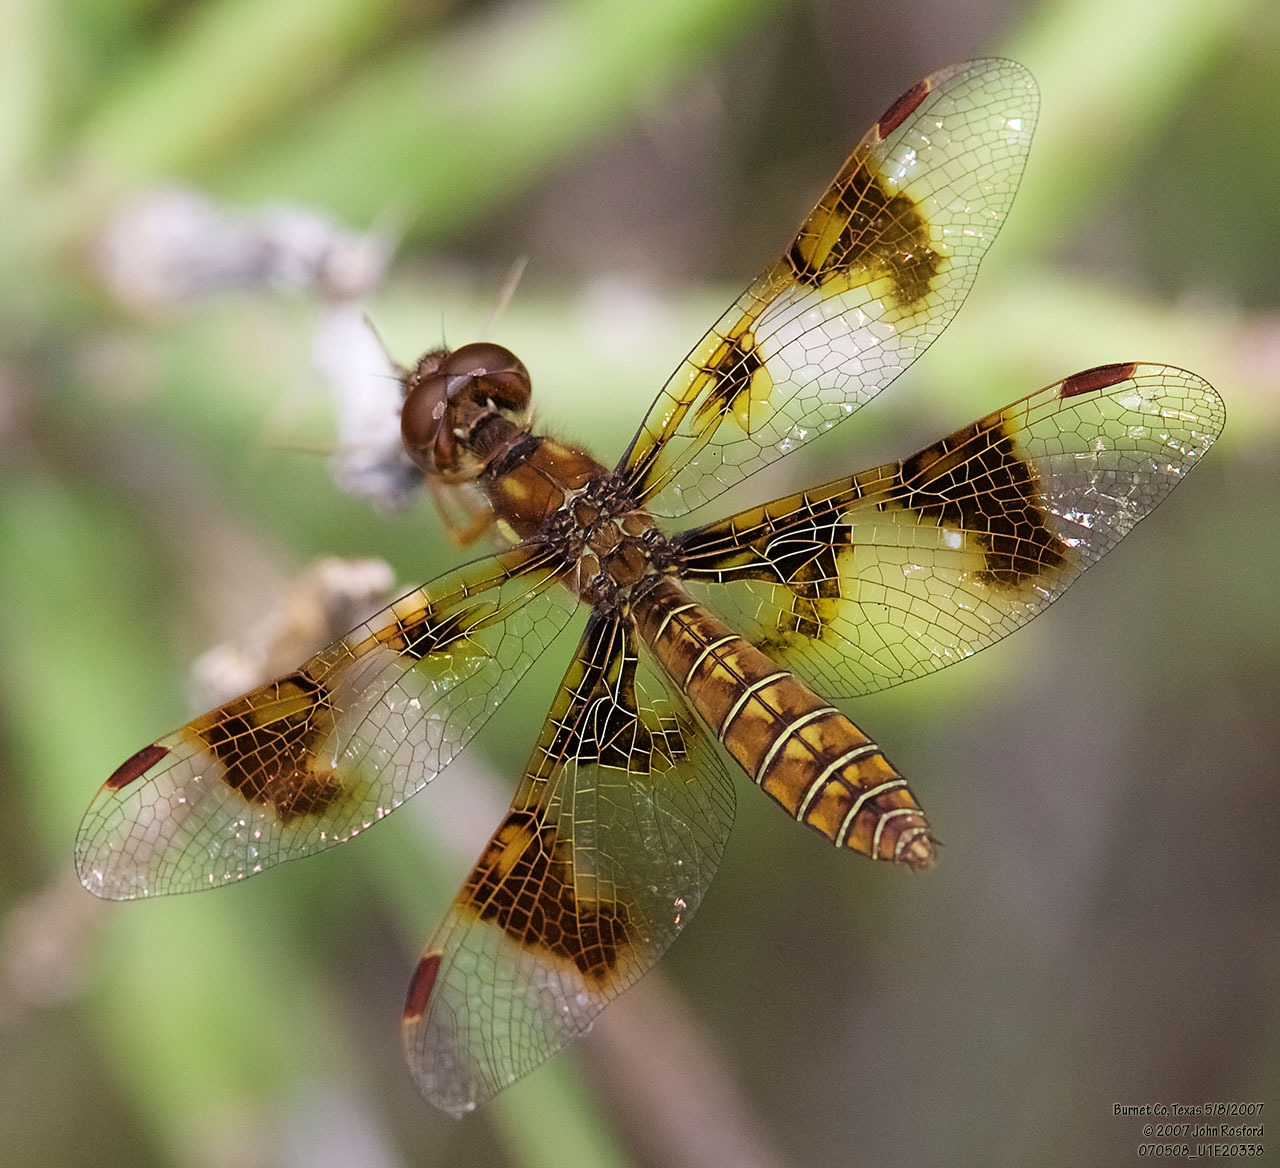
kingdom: Animalia
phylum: Arthropoda
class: Insecta
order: Odonata
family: Libellulidae
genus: Perithemis
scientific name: Perithemis tenera
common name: Eastern amberwing
